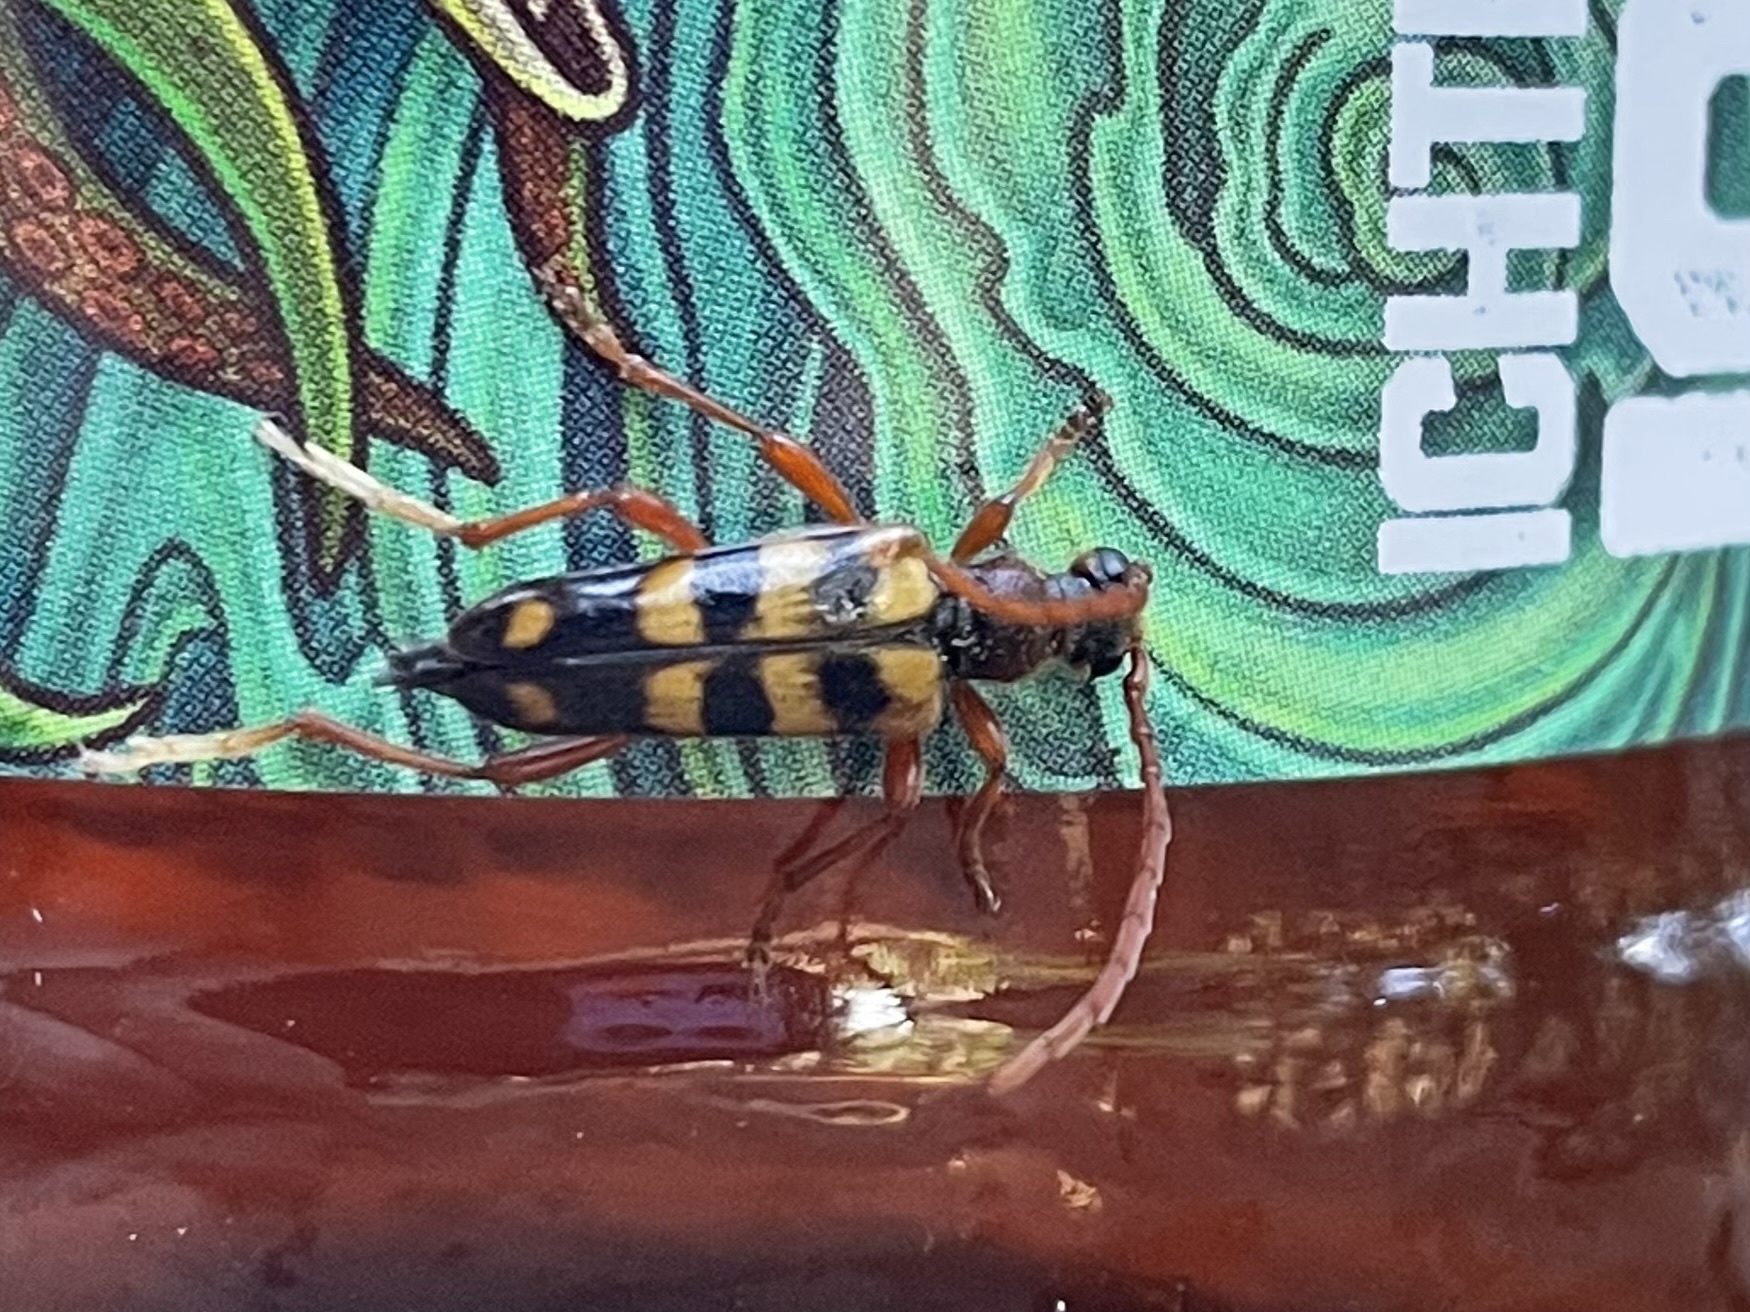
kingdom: Animalia
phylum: Arthropoda
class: Insecta
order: Coleoptera
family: Cerambycidae
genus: Xestoleptura
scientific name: Xestoleptura crassicornis
